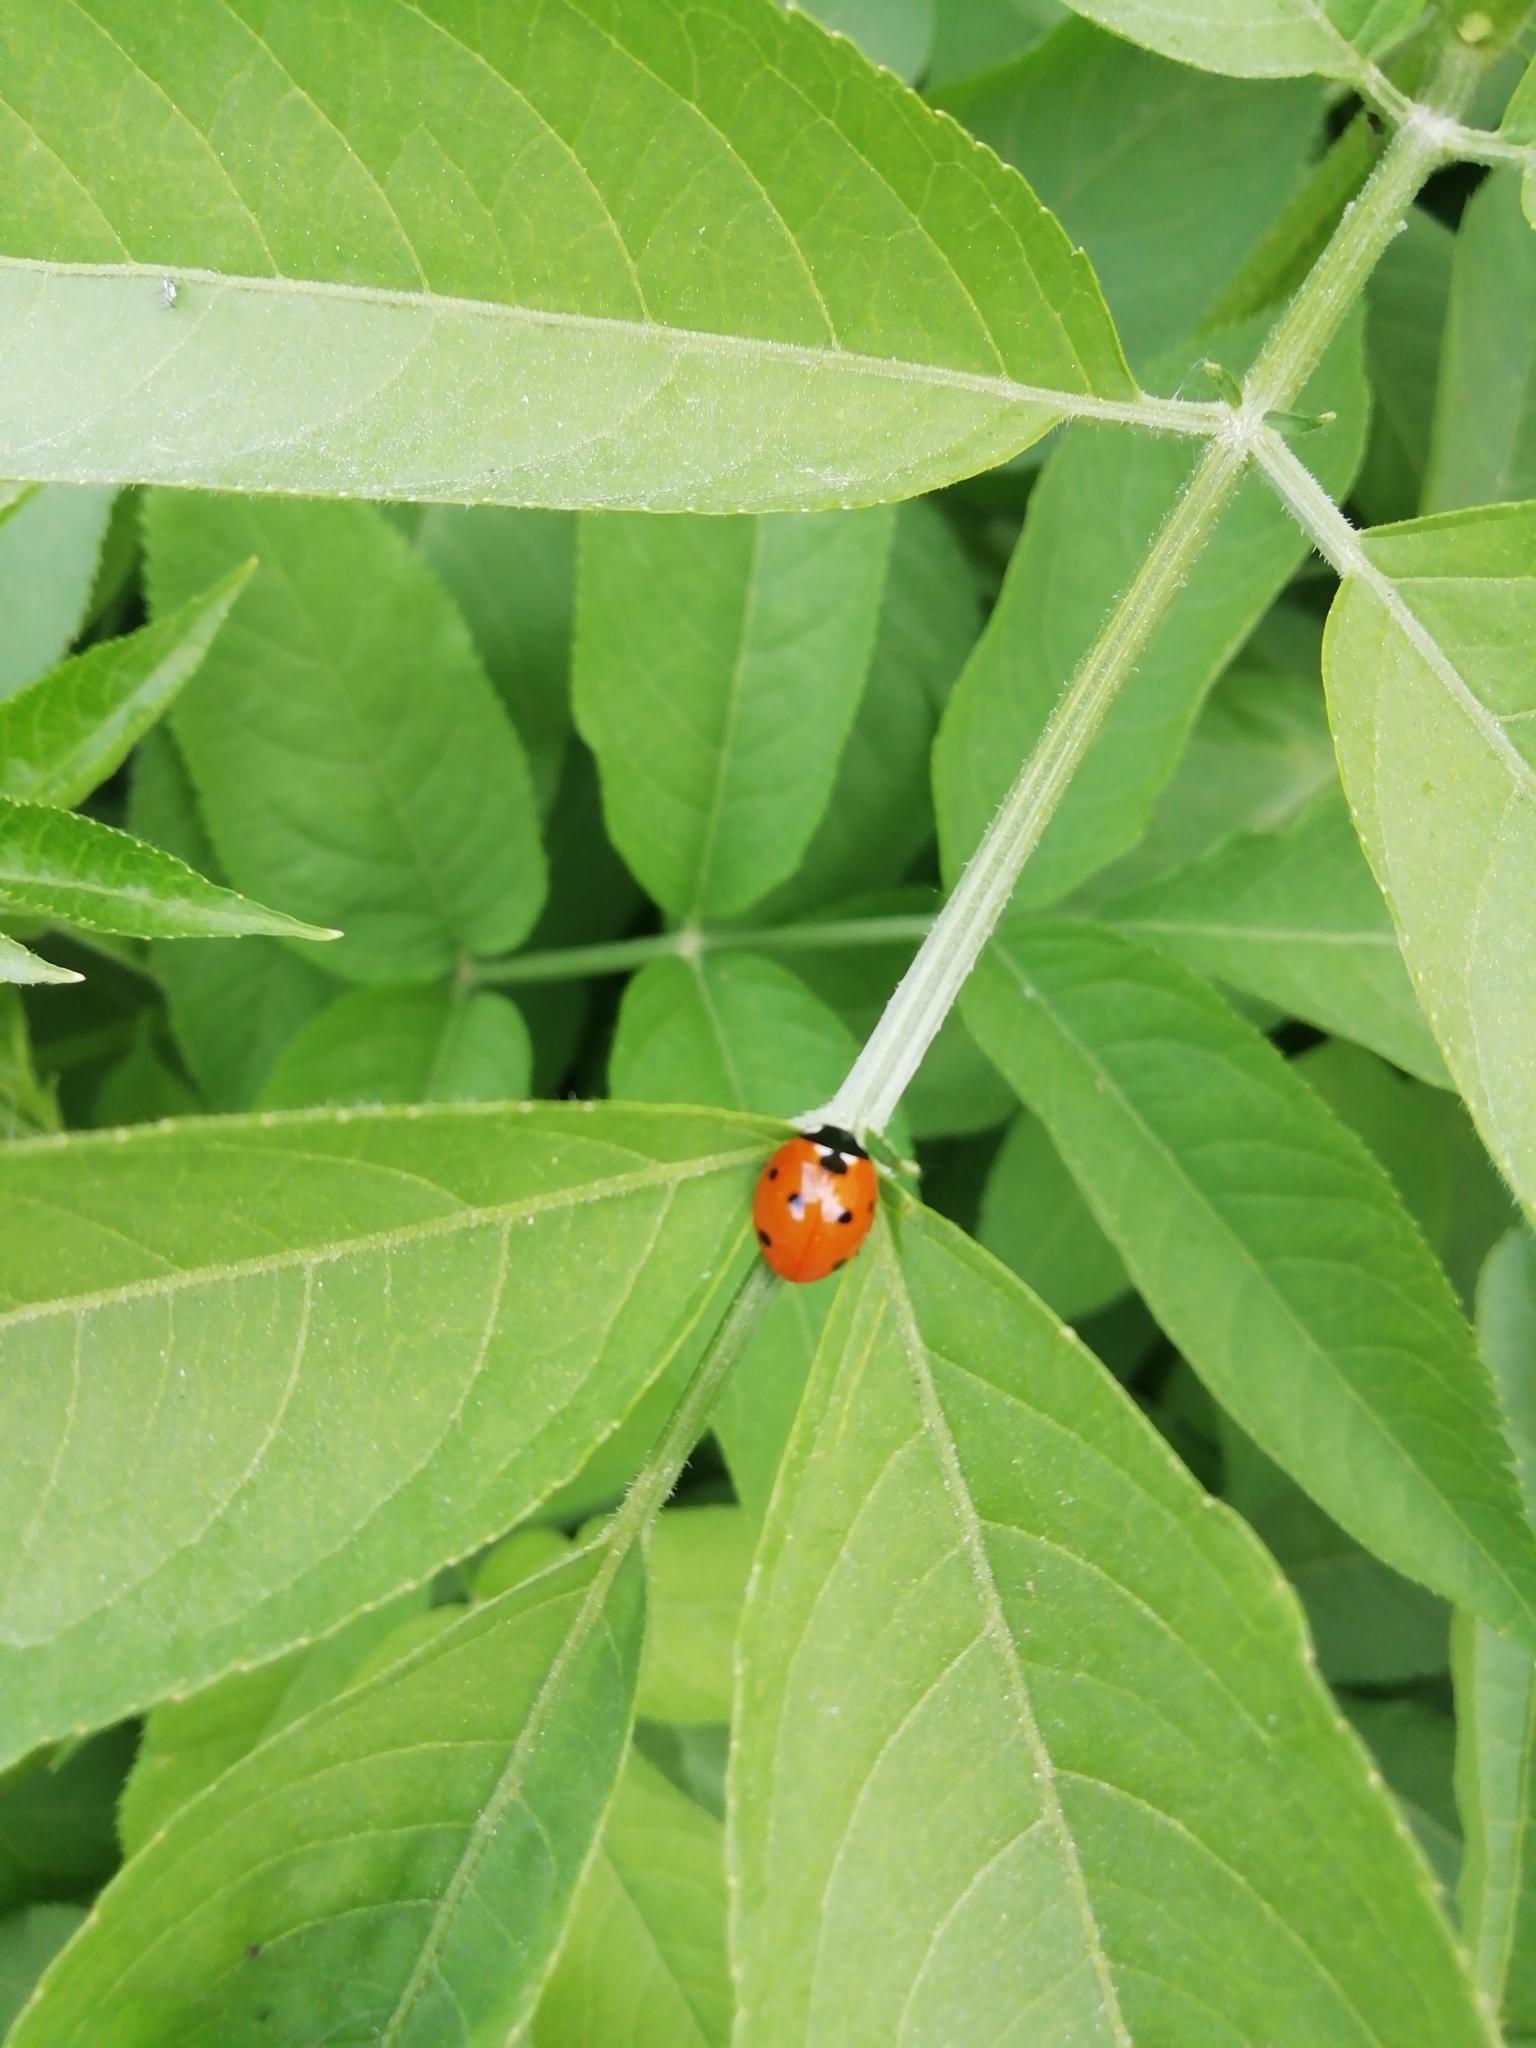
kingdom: Animalia
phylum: Arthropoda
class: Insecta
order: Coleoptera
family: Coccinellidae
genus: Coccinella
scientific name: Coccinella septempunctata
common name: Sevenspotted lady beetle
